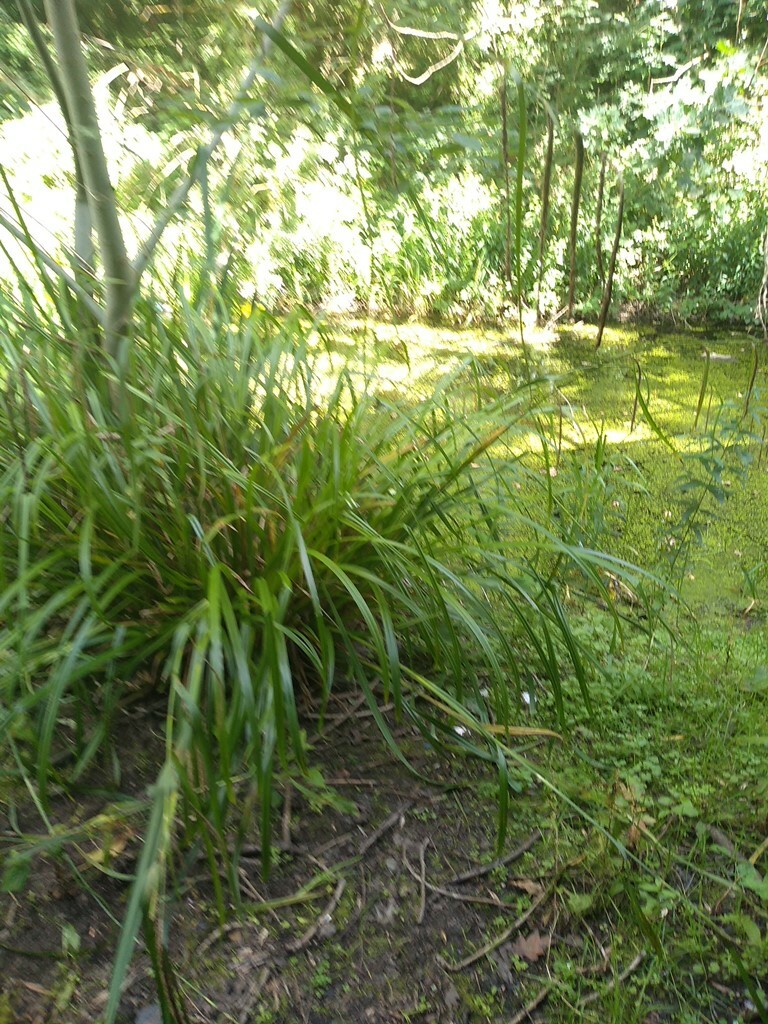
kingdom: Plantae
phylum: Tracheophyta
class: Liliopsida
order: Poales
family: Cyperaceae
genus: Carex
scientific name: Carex pendula
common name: Pendulous sedge
